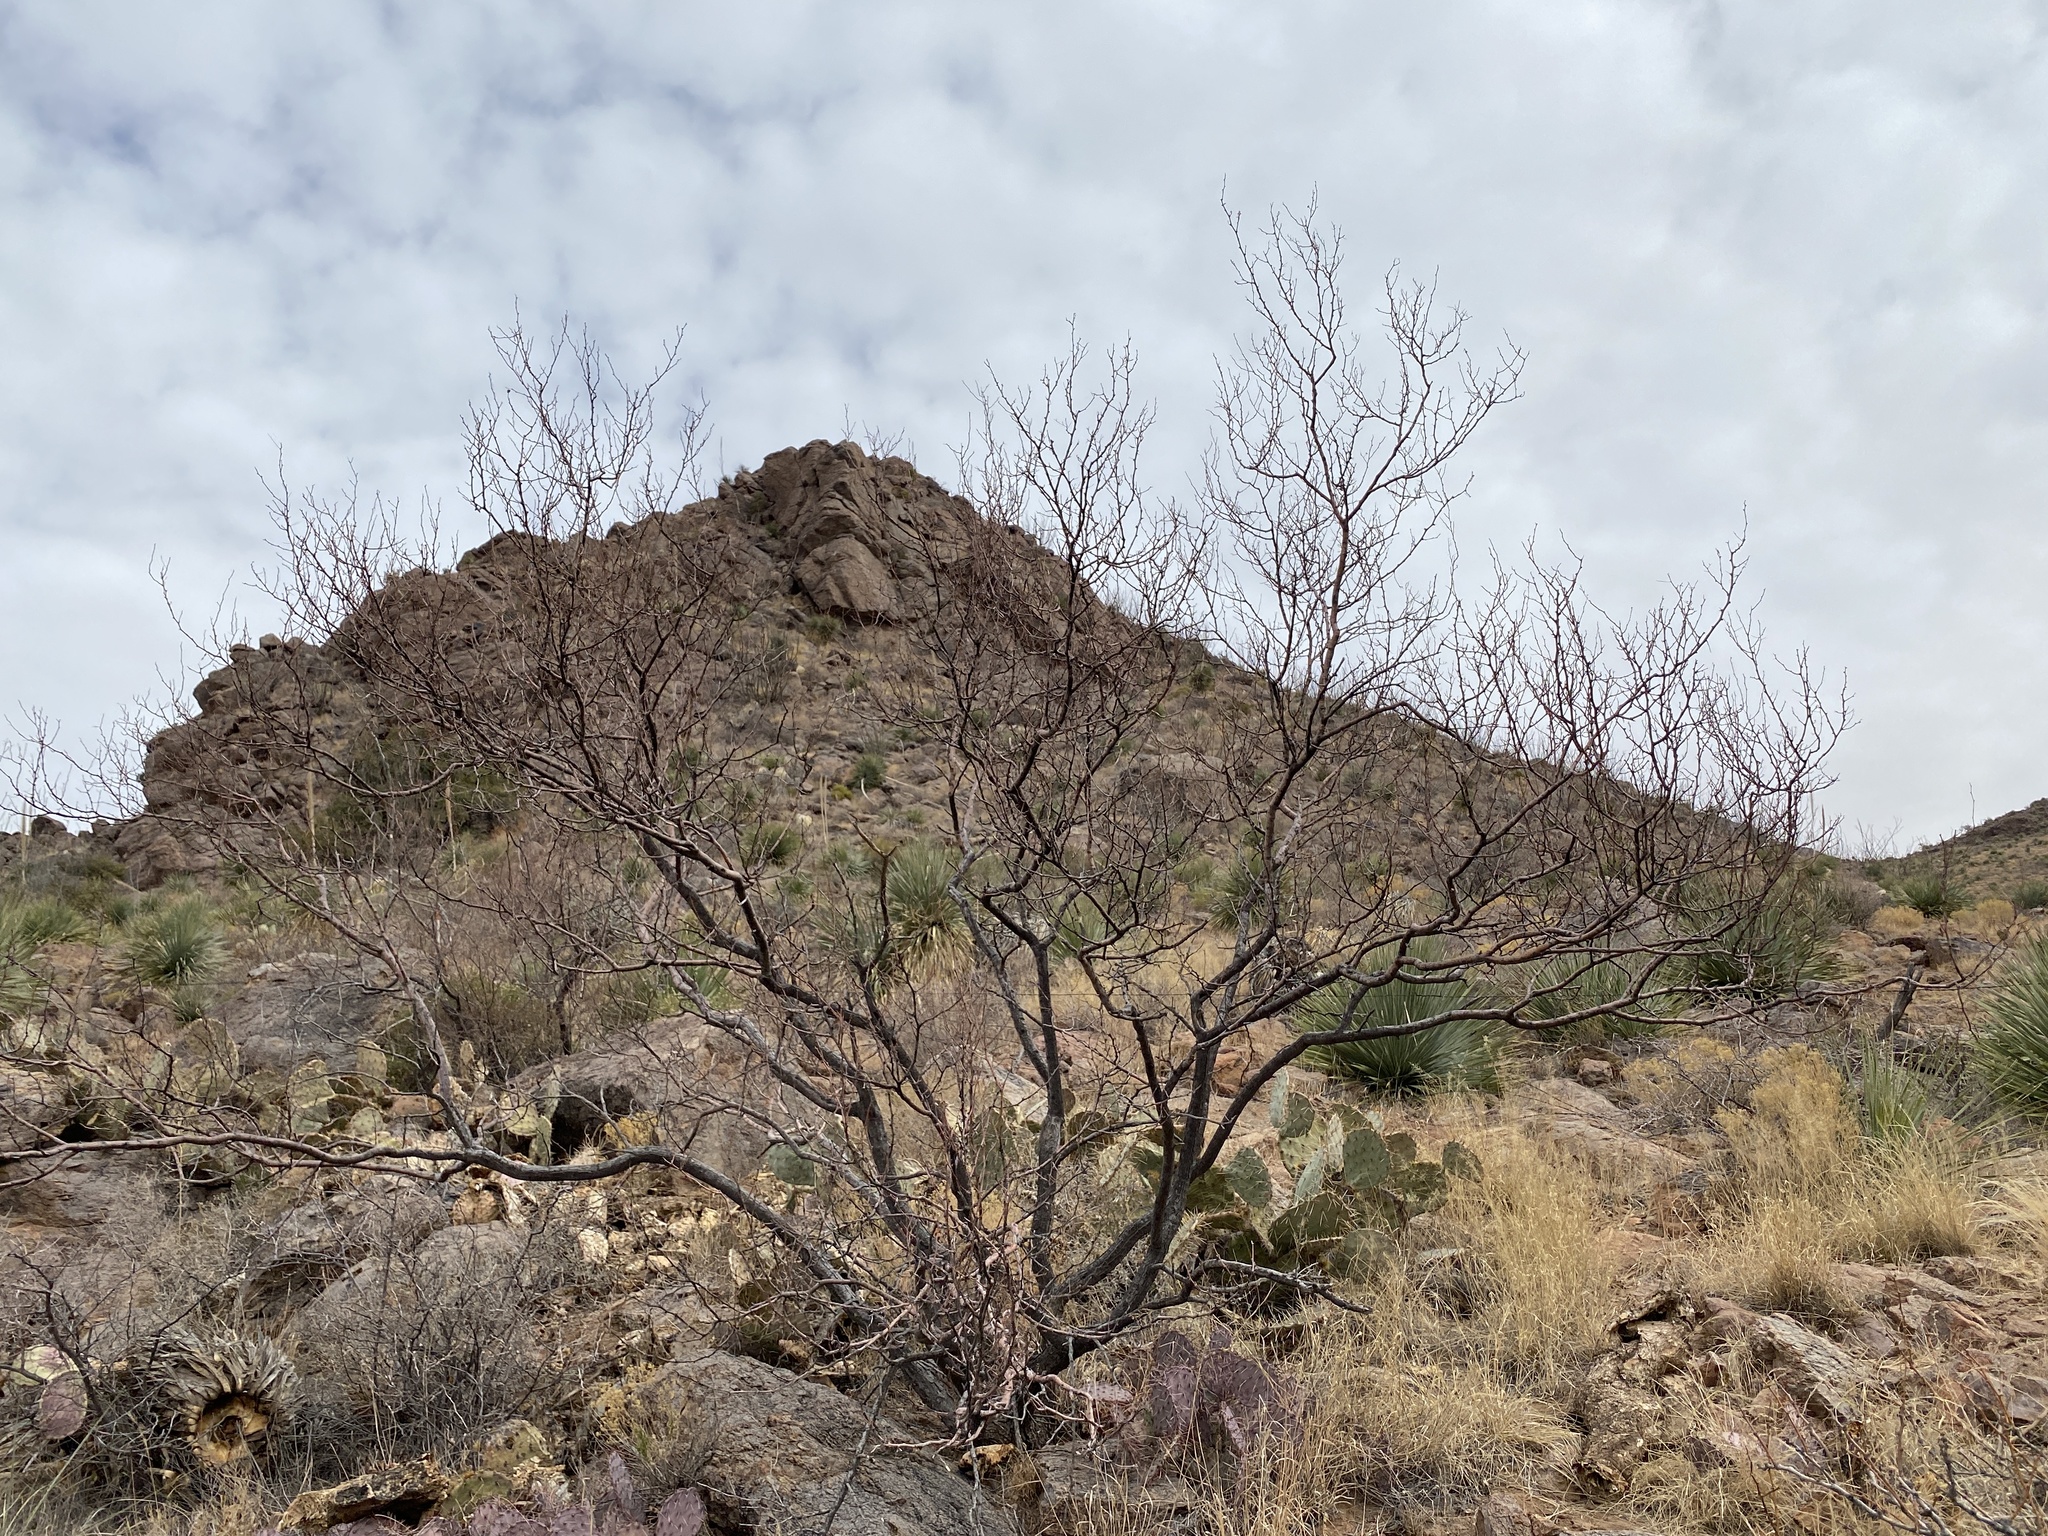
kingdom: Plantae
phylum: Tracheophyta
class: Magnoliopsida
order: Fabales
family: Fabaceae
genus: Vachellia
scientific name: Vachellia constricta
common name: Mescat acacia
